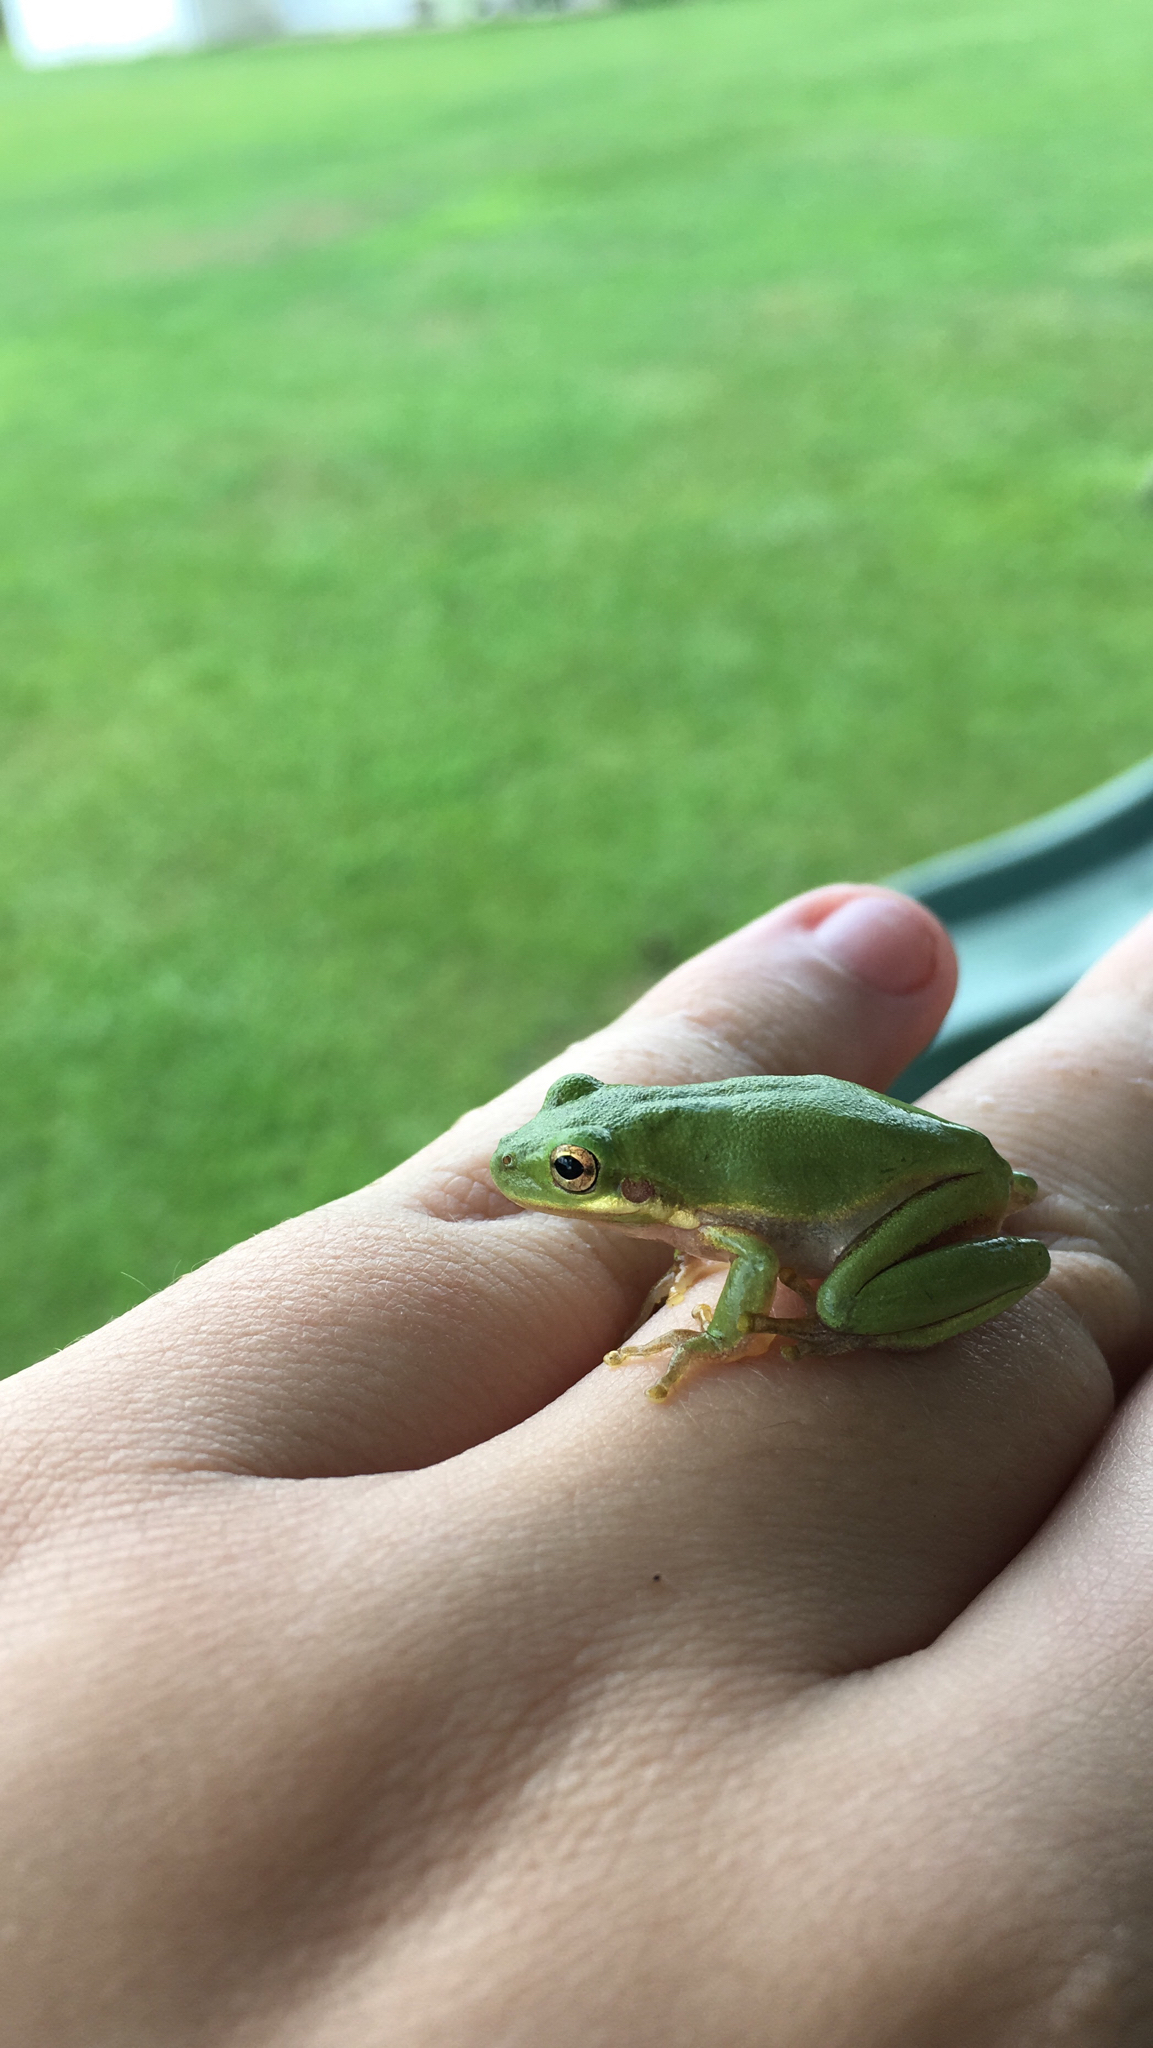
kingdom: Animalia
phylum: Chordata
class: Amphibia
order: Anura
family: Hylidae
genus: Dryophytes
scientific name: Dryophytes squirellus
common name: Squirrel treefrog
